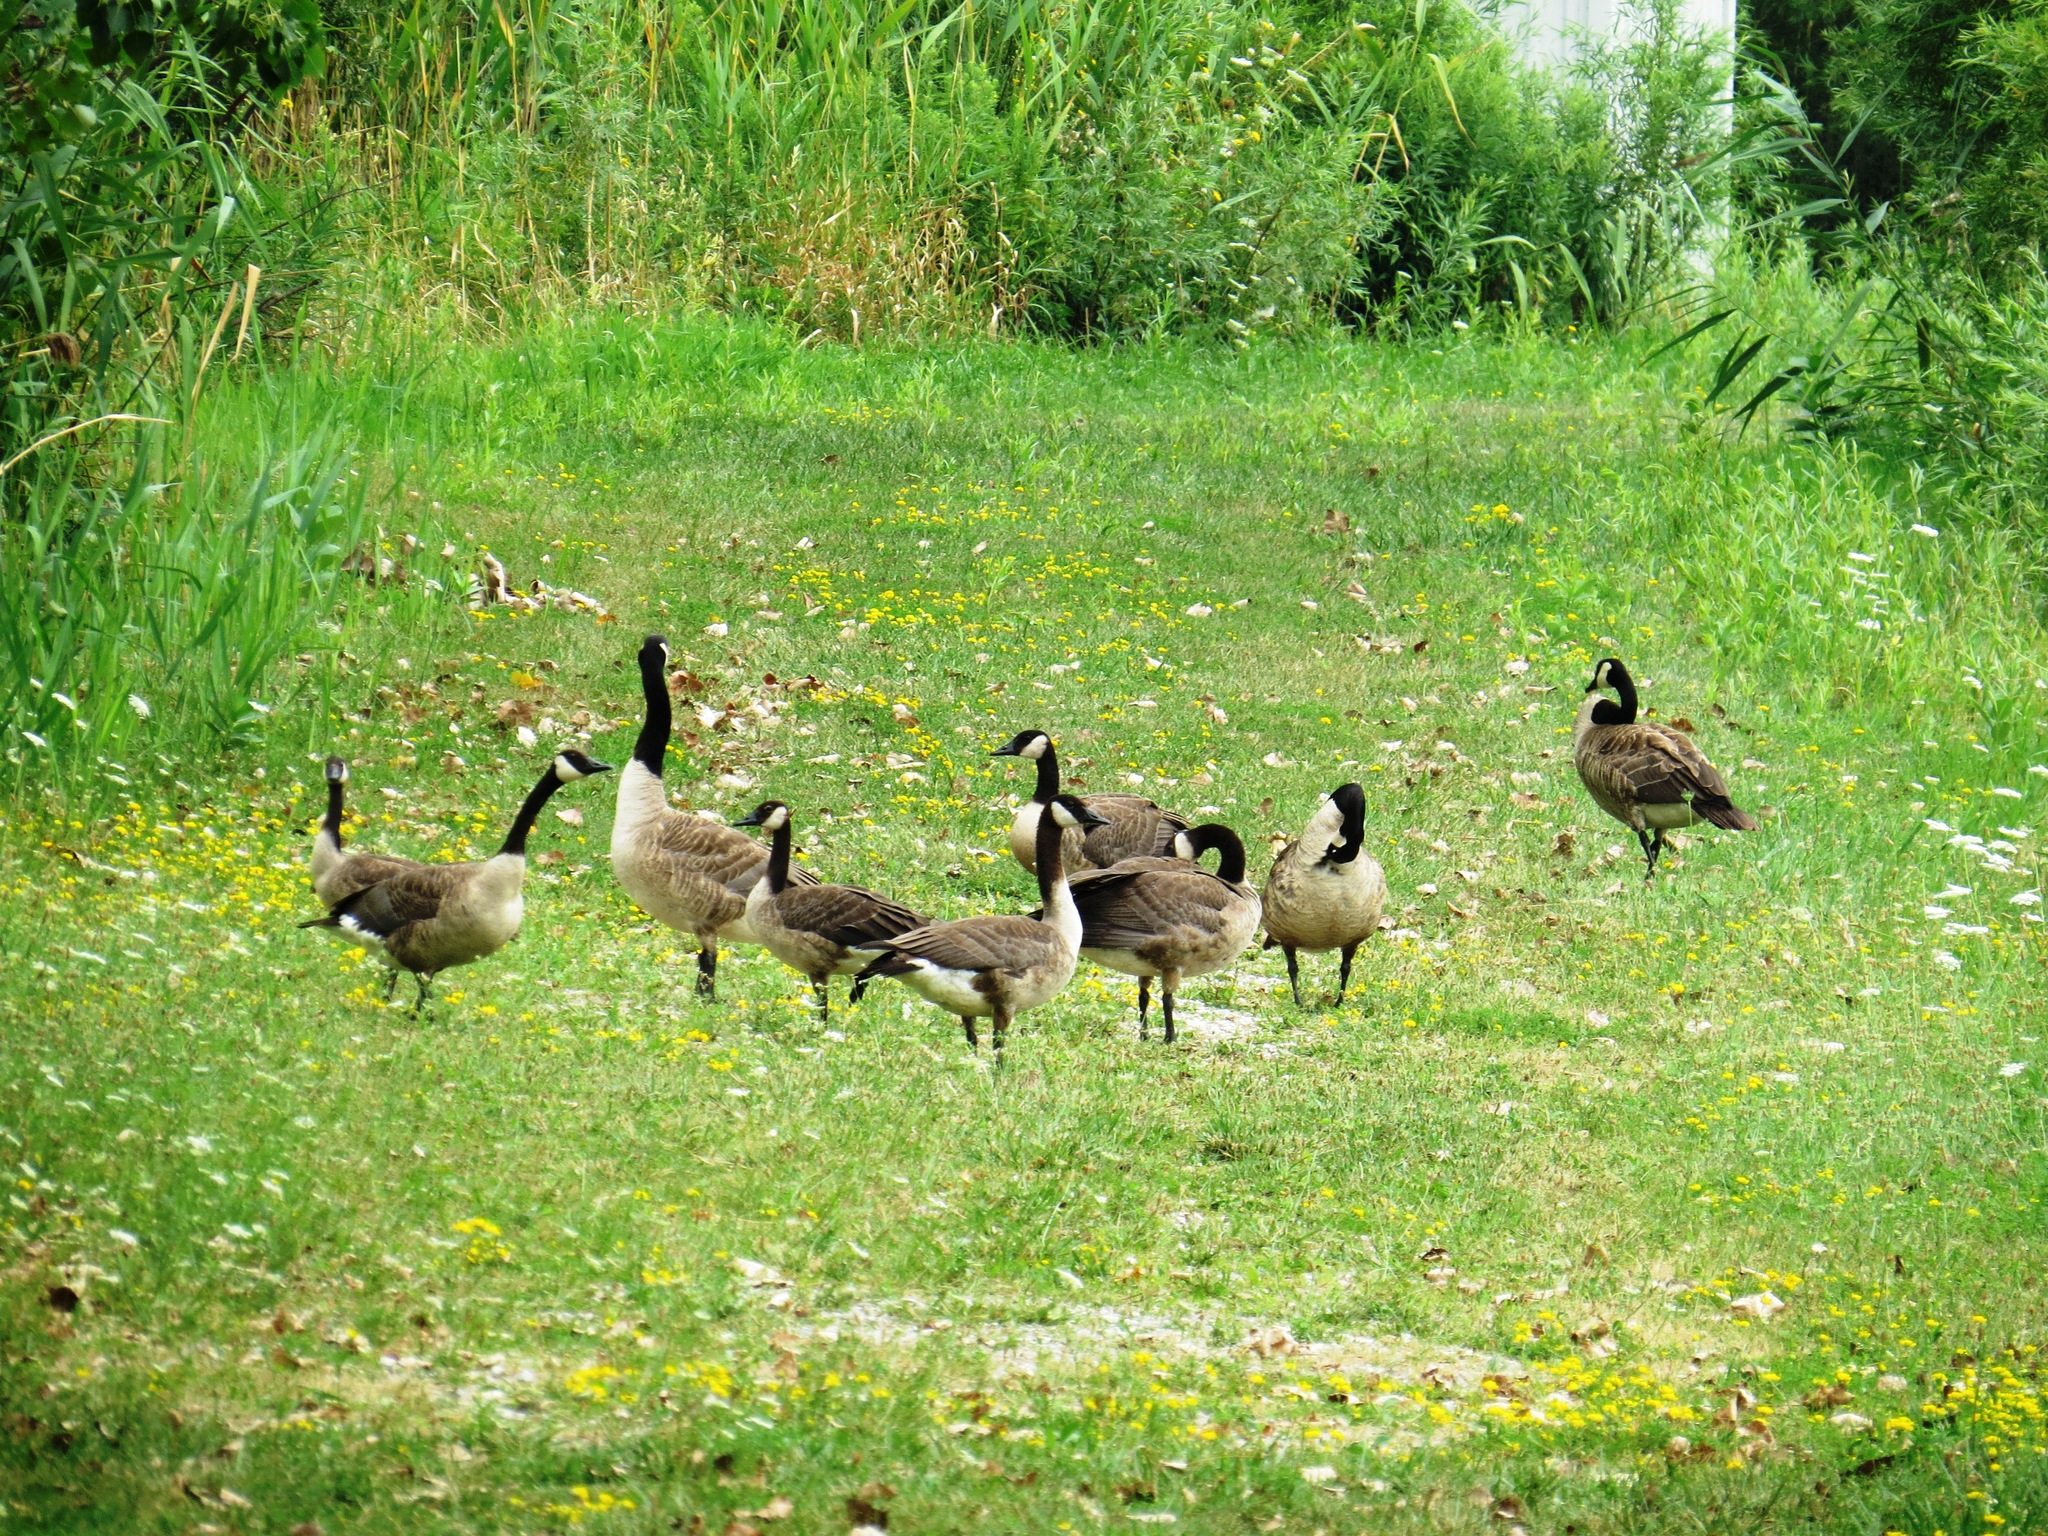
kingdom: Animalia
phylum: Chordata
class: Aves
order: Anseriformes
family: Anatidae
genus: Branta
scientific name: Branta canadensis
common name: Canada goose
